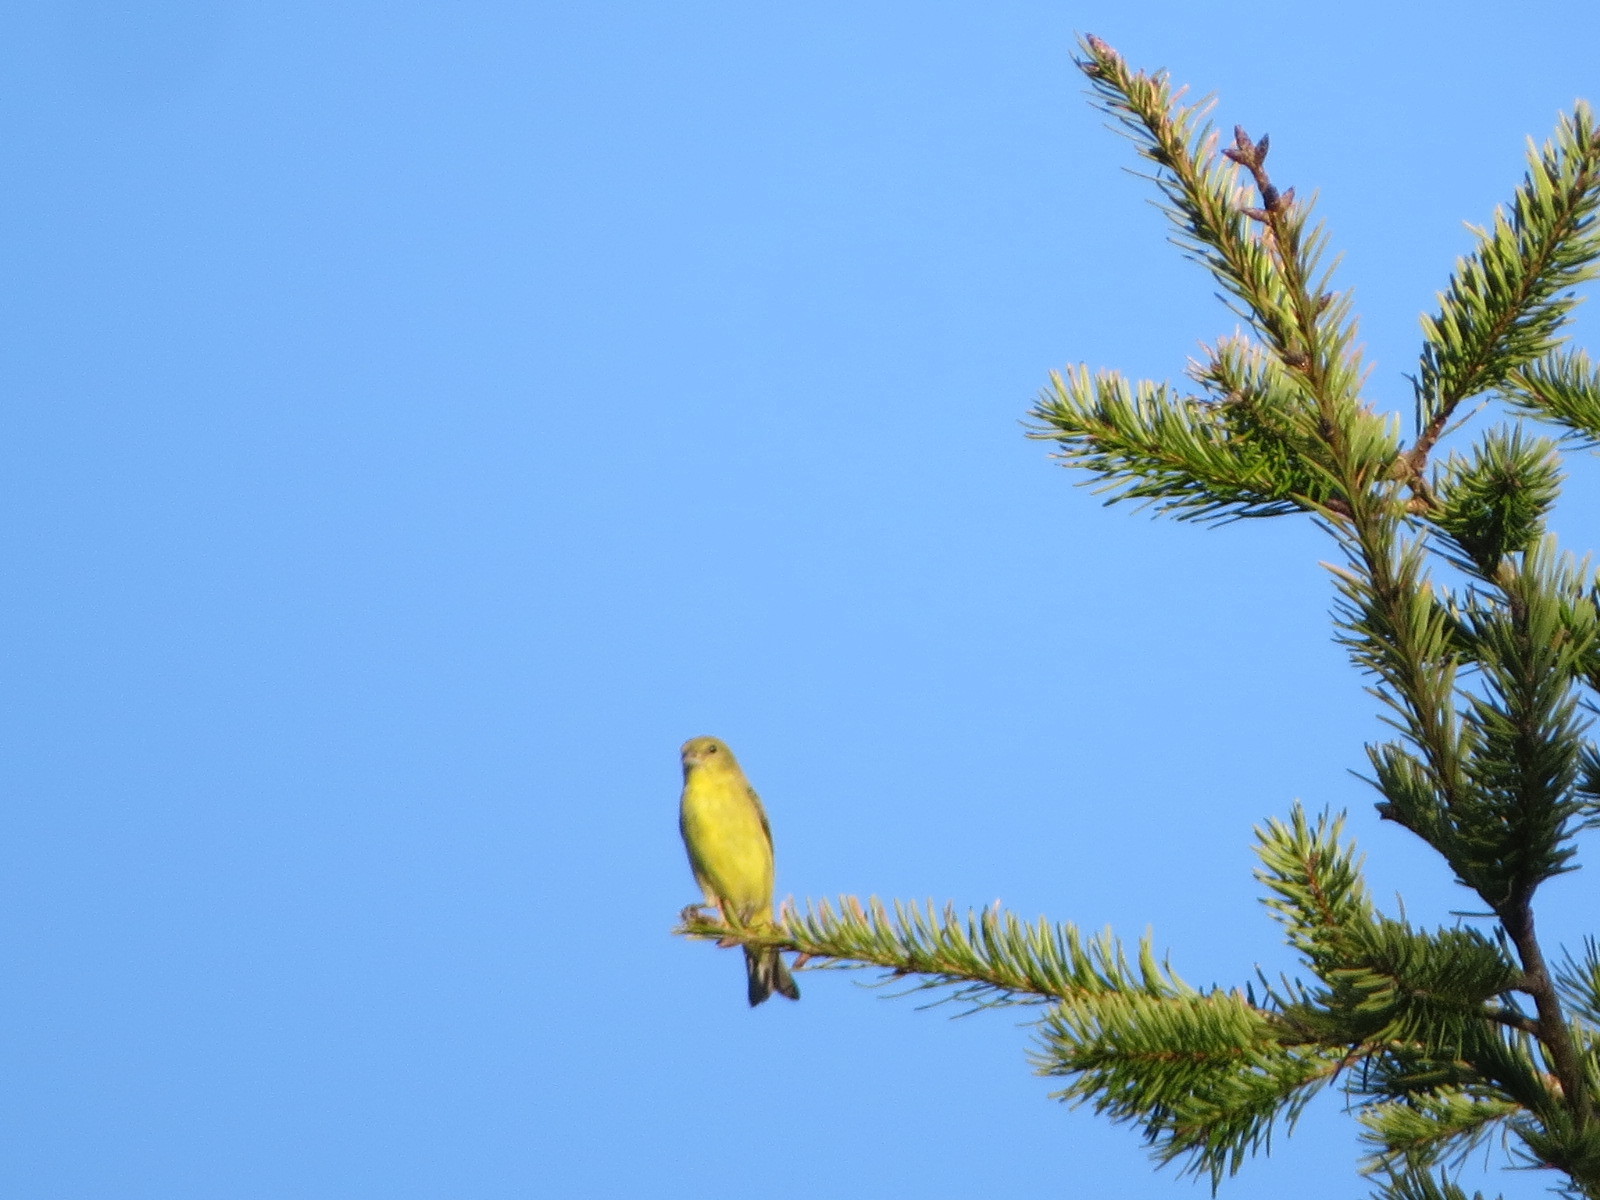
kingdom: Animalia
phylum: Chordata
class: Aves
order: Passeriformes
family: Fringillidae
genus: Spinus
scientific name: Spinus psaltria
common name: Lesser goldfinch
